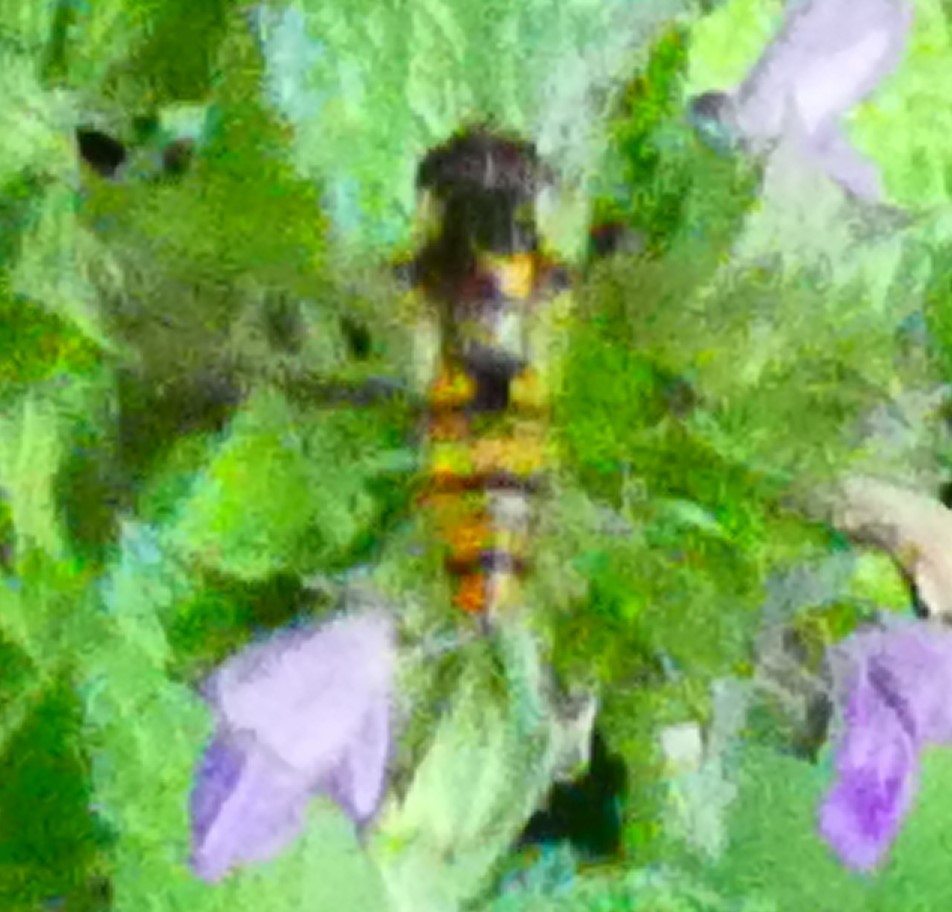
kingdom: Animalia
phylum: Arthropoda
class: Insecta
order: Diptera
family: Syrphidae
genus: Episyrphus
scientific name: Episyrphus balteatus
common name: Marmalade hoverfly
